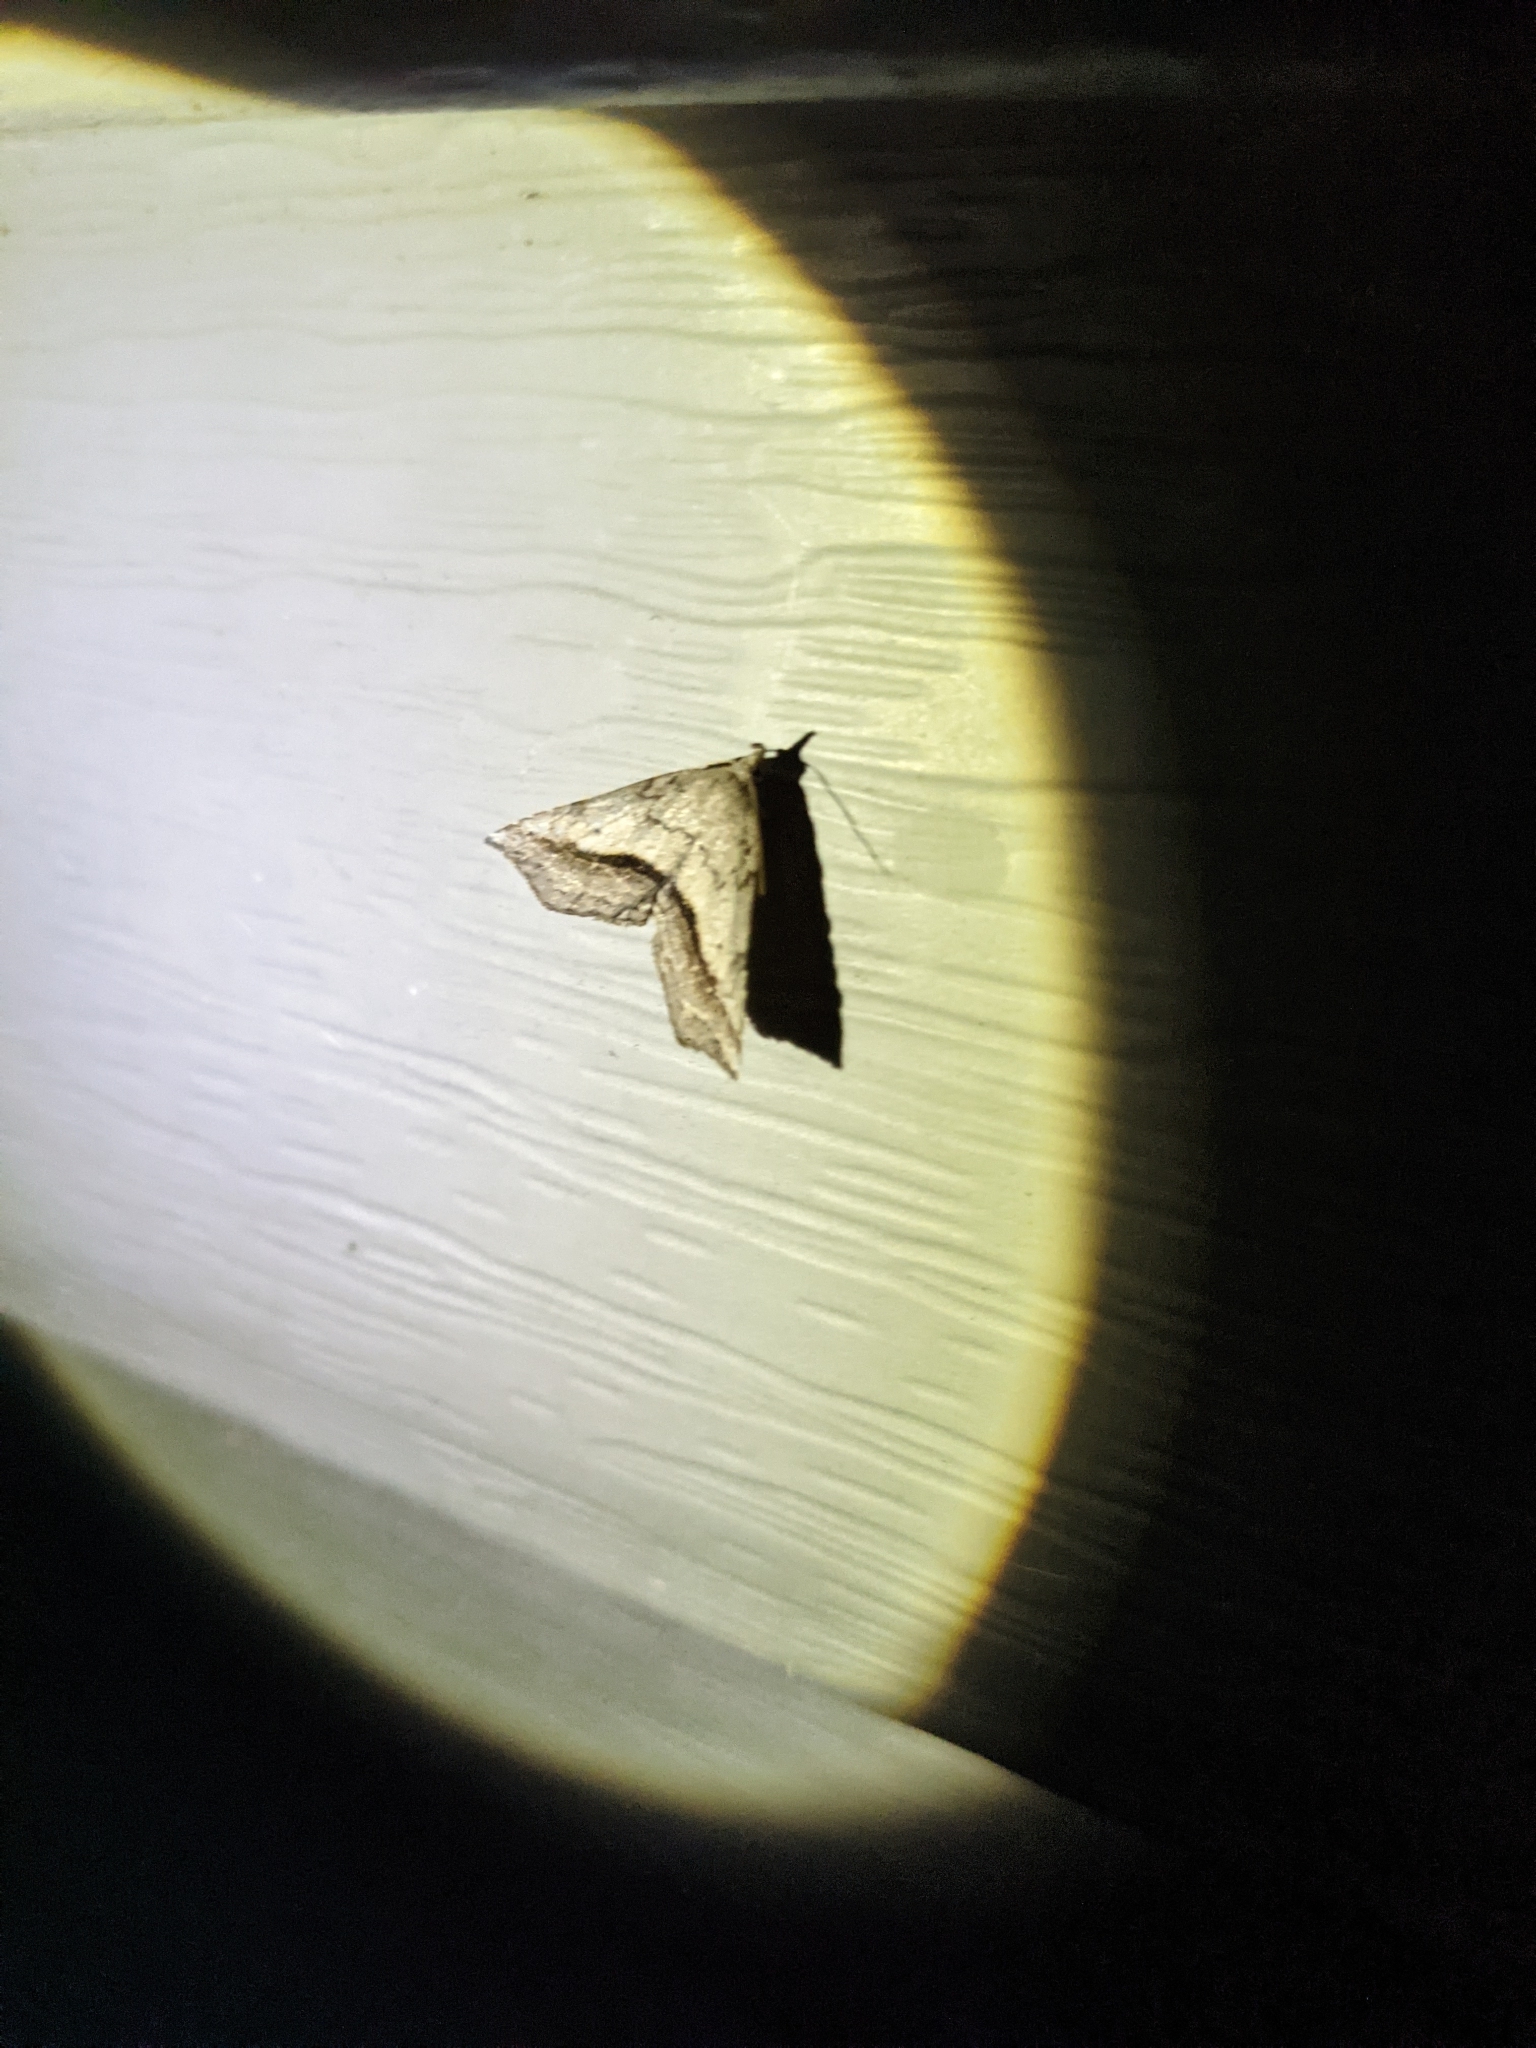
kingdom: Animalia
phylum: Arthropoda
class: Insecta
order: Lepidoptera
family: Erebidae
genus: Spargaloma
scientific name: Spargaloma perditalis
